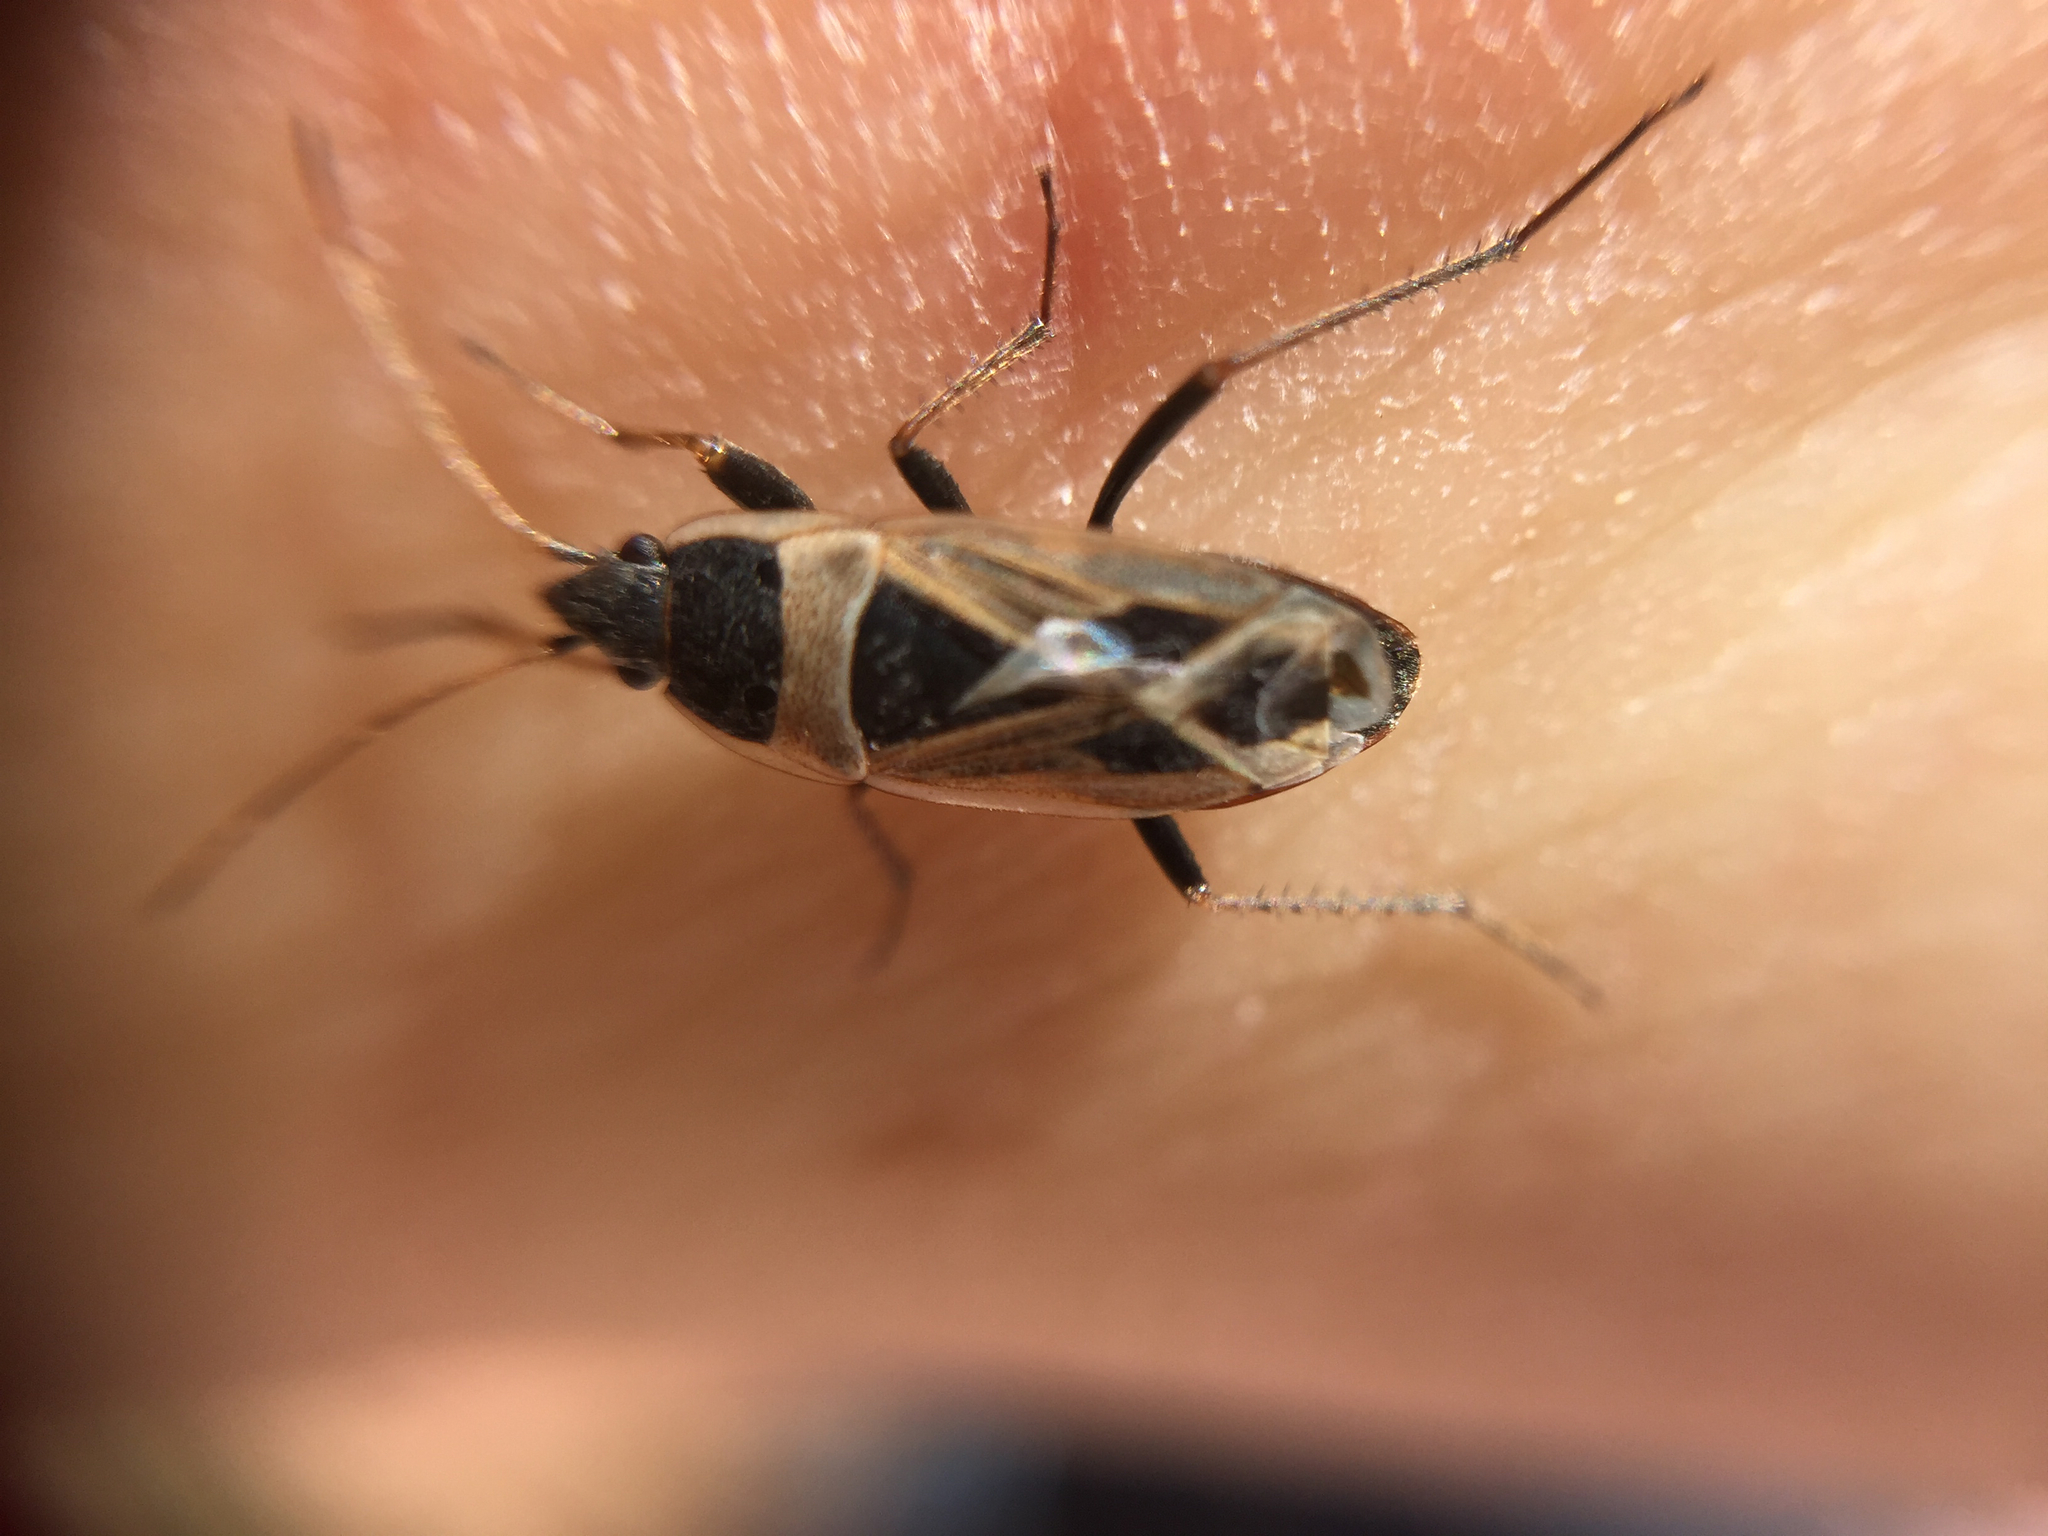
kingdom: Animalia
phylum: Arthropoda
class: Insecta
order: Hemiptera
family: Rhyparochromidae
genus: Xanthochilus
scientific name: Xanthochilus saturnius
